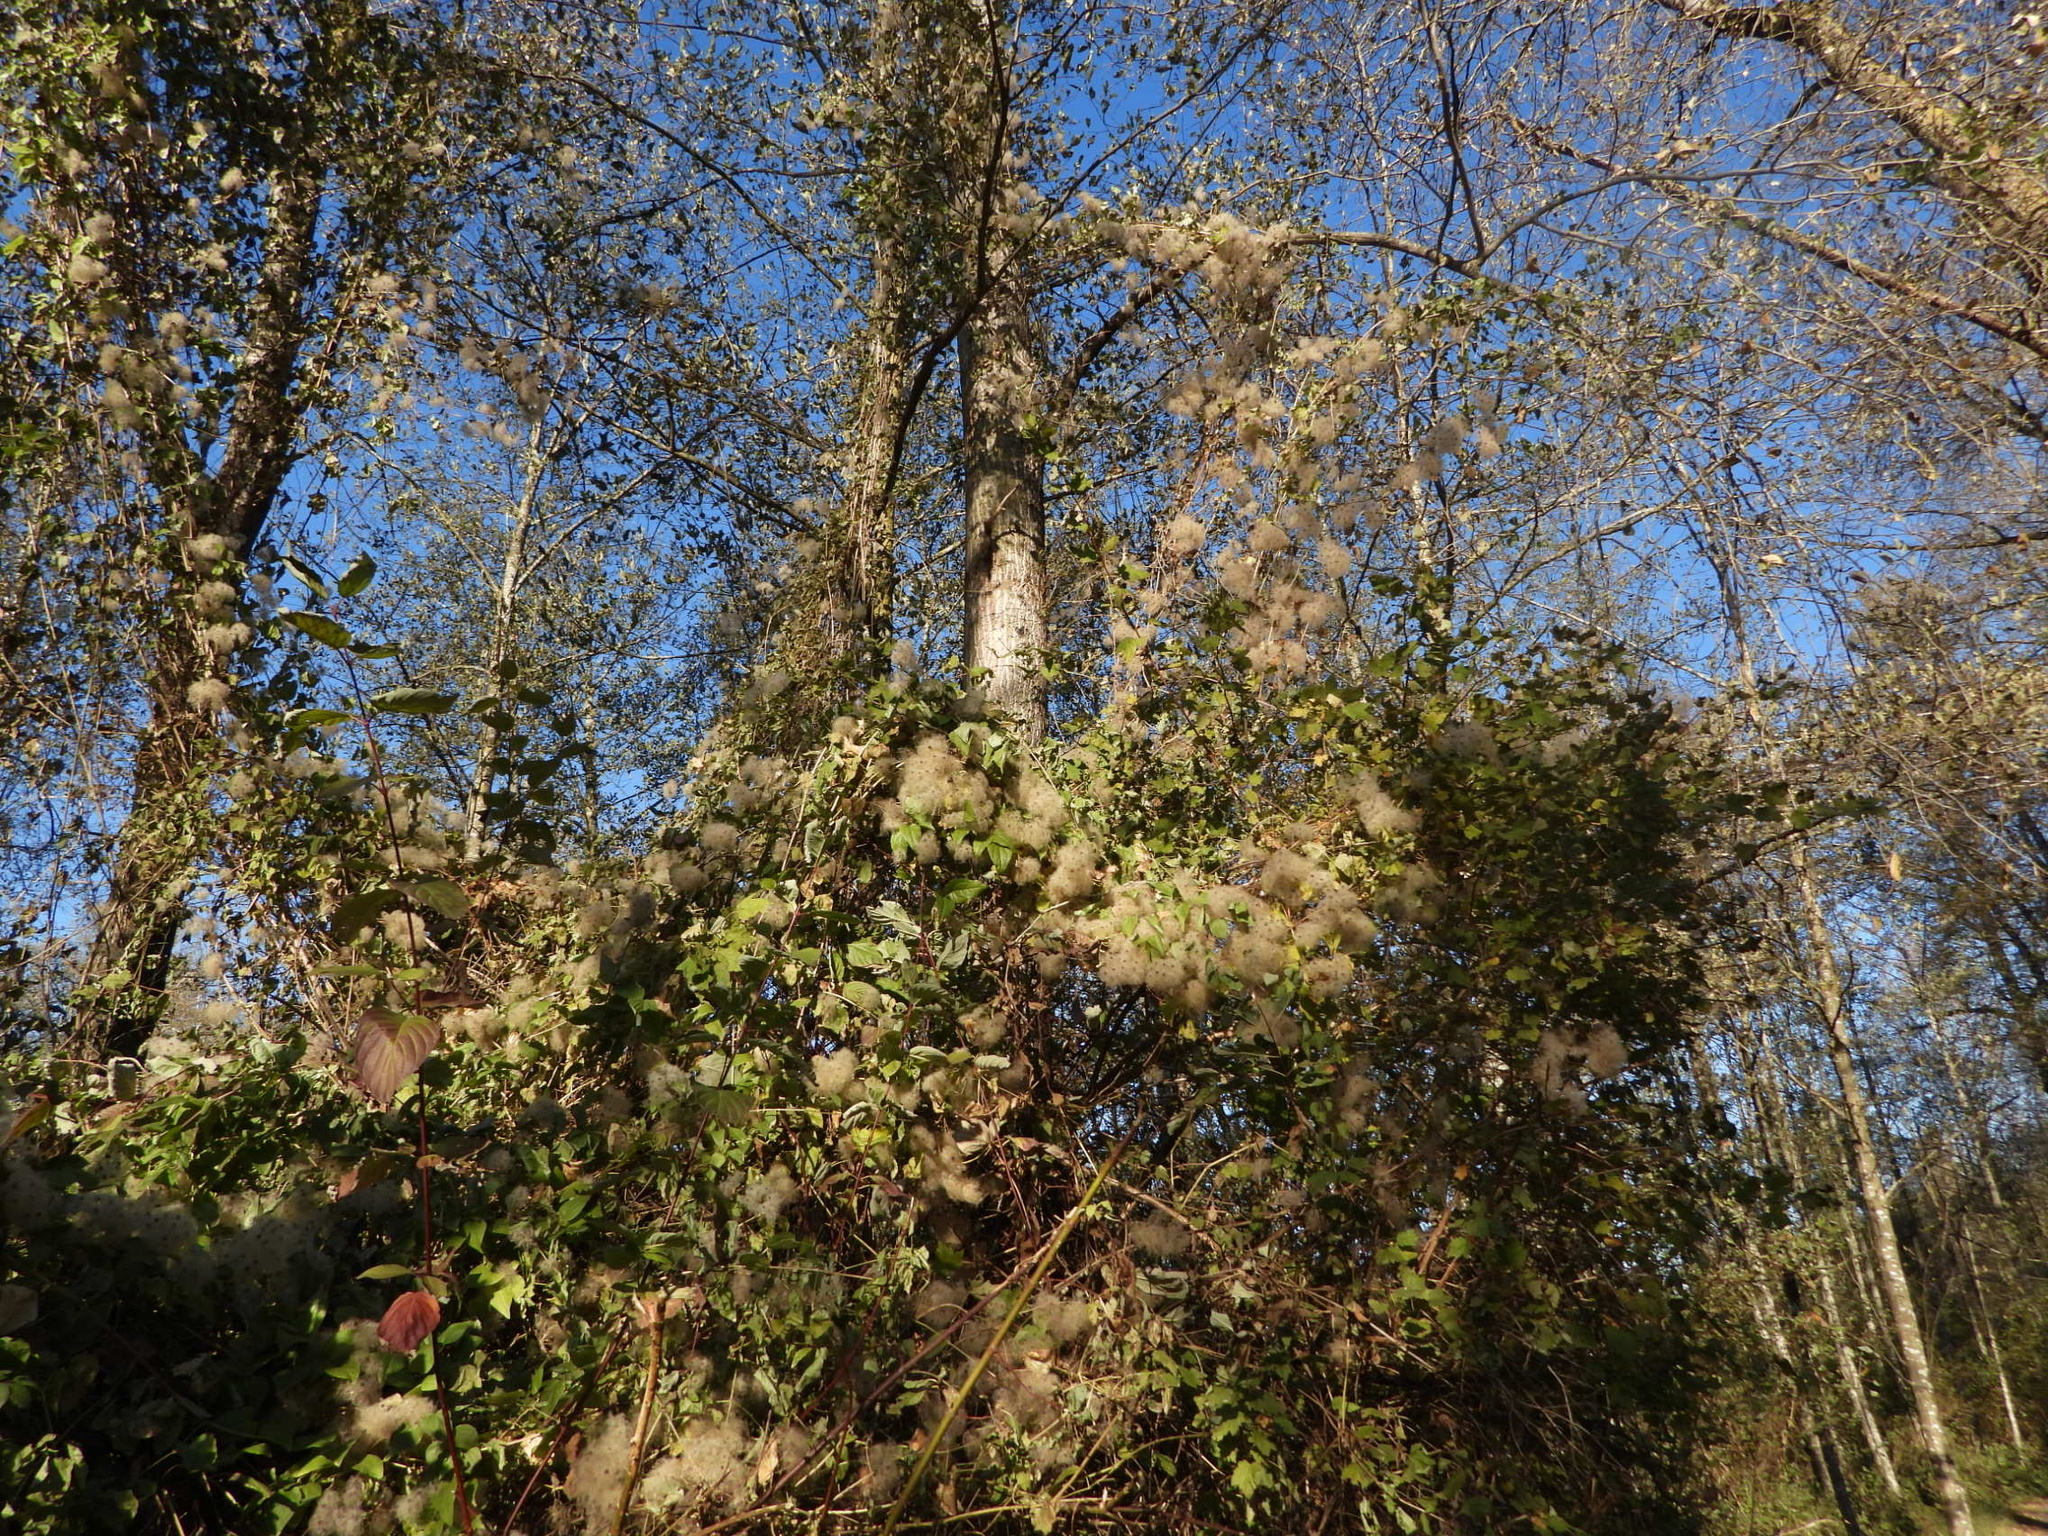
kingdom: Plantae
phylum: Tracheophyta
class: Magnoliopsida
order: Ranunculales
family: Ranunculaceae
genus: Clematis
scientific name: Clematis vitalba
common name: Evergreen clematis
